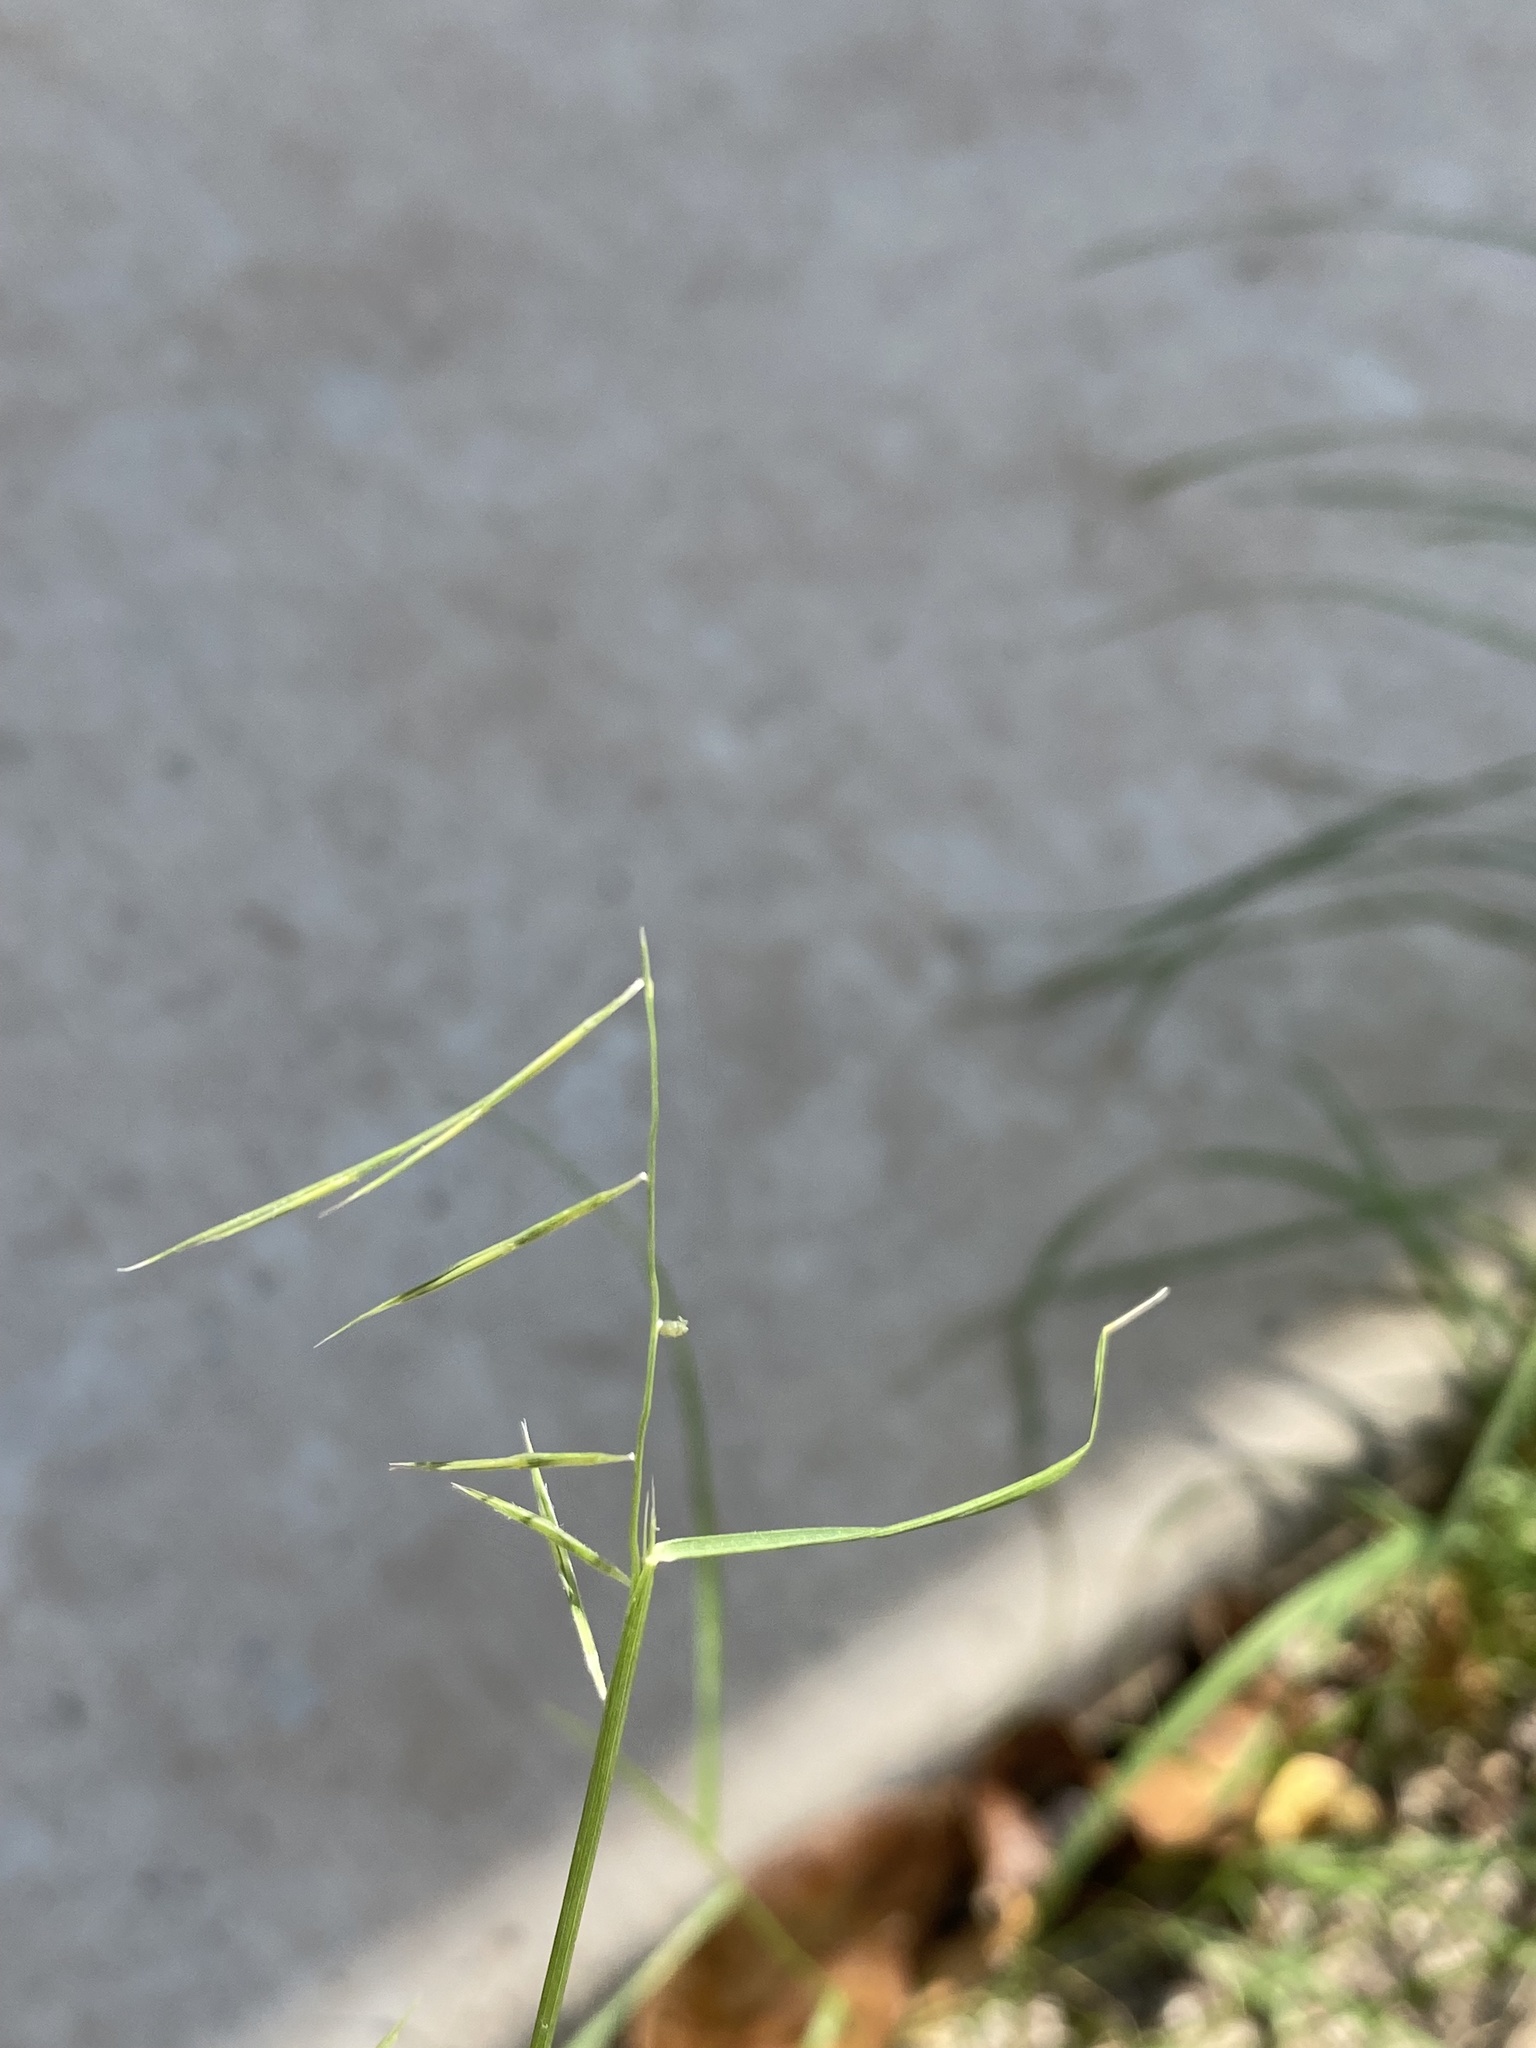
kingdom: Plantae
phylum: Tracheophyta
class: Liliopsida
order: Poales
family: Poaceae
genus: Bouteloua
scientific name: Bouteloua aristidoides
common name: Needle grama
